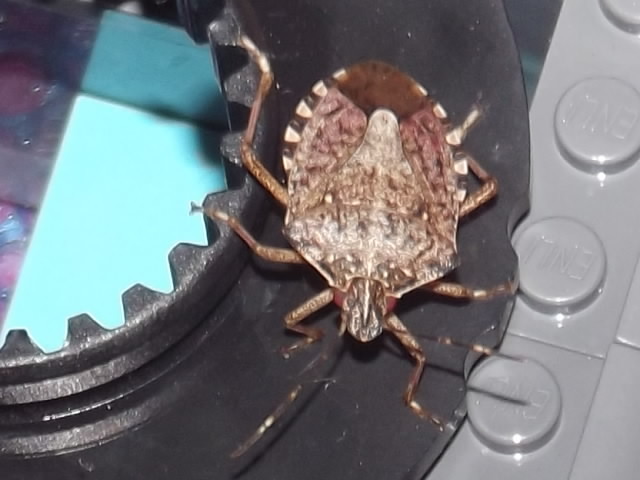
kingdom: Animalia
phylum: Arthropoda
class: Insecta
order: Hemiptera
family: Pentatomidae
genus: Halyomorpha
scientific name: Halyomorpha halys
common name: Brown marmorated stink bug
